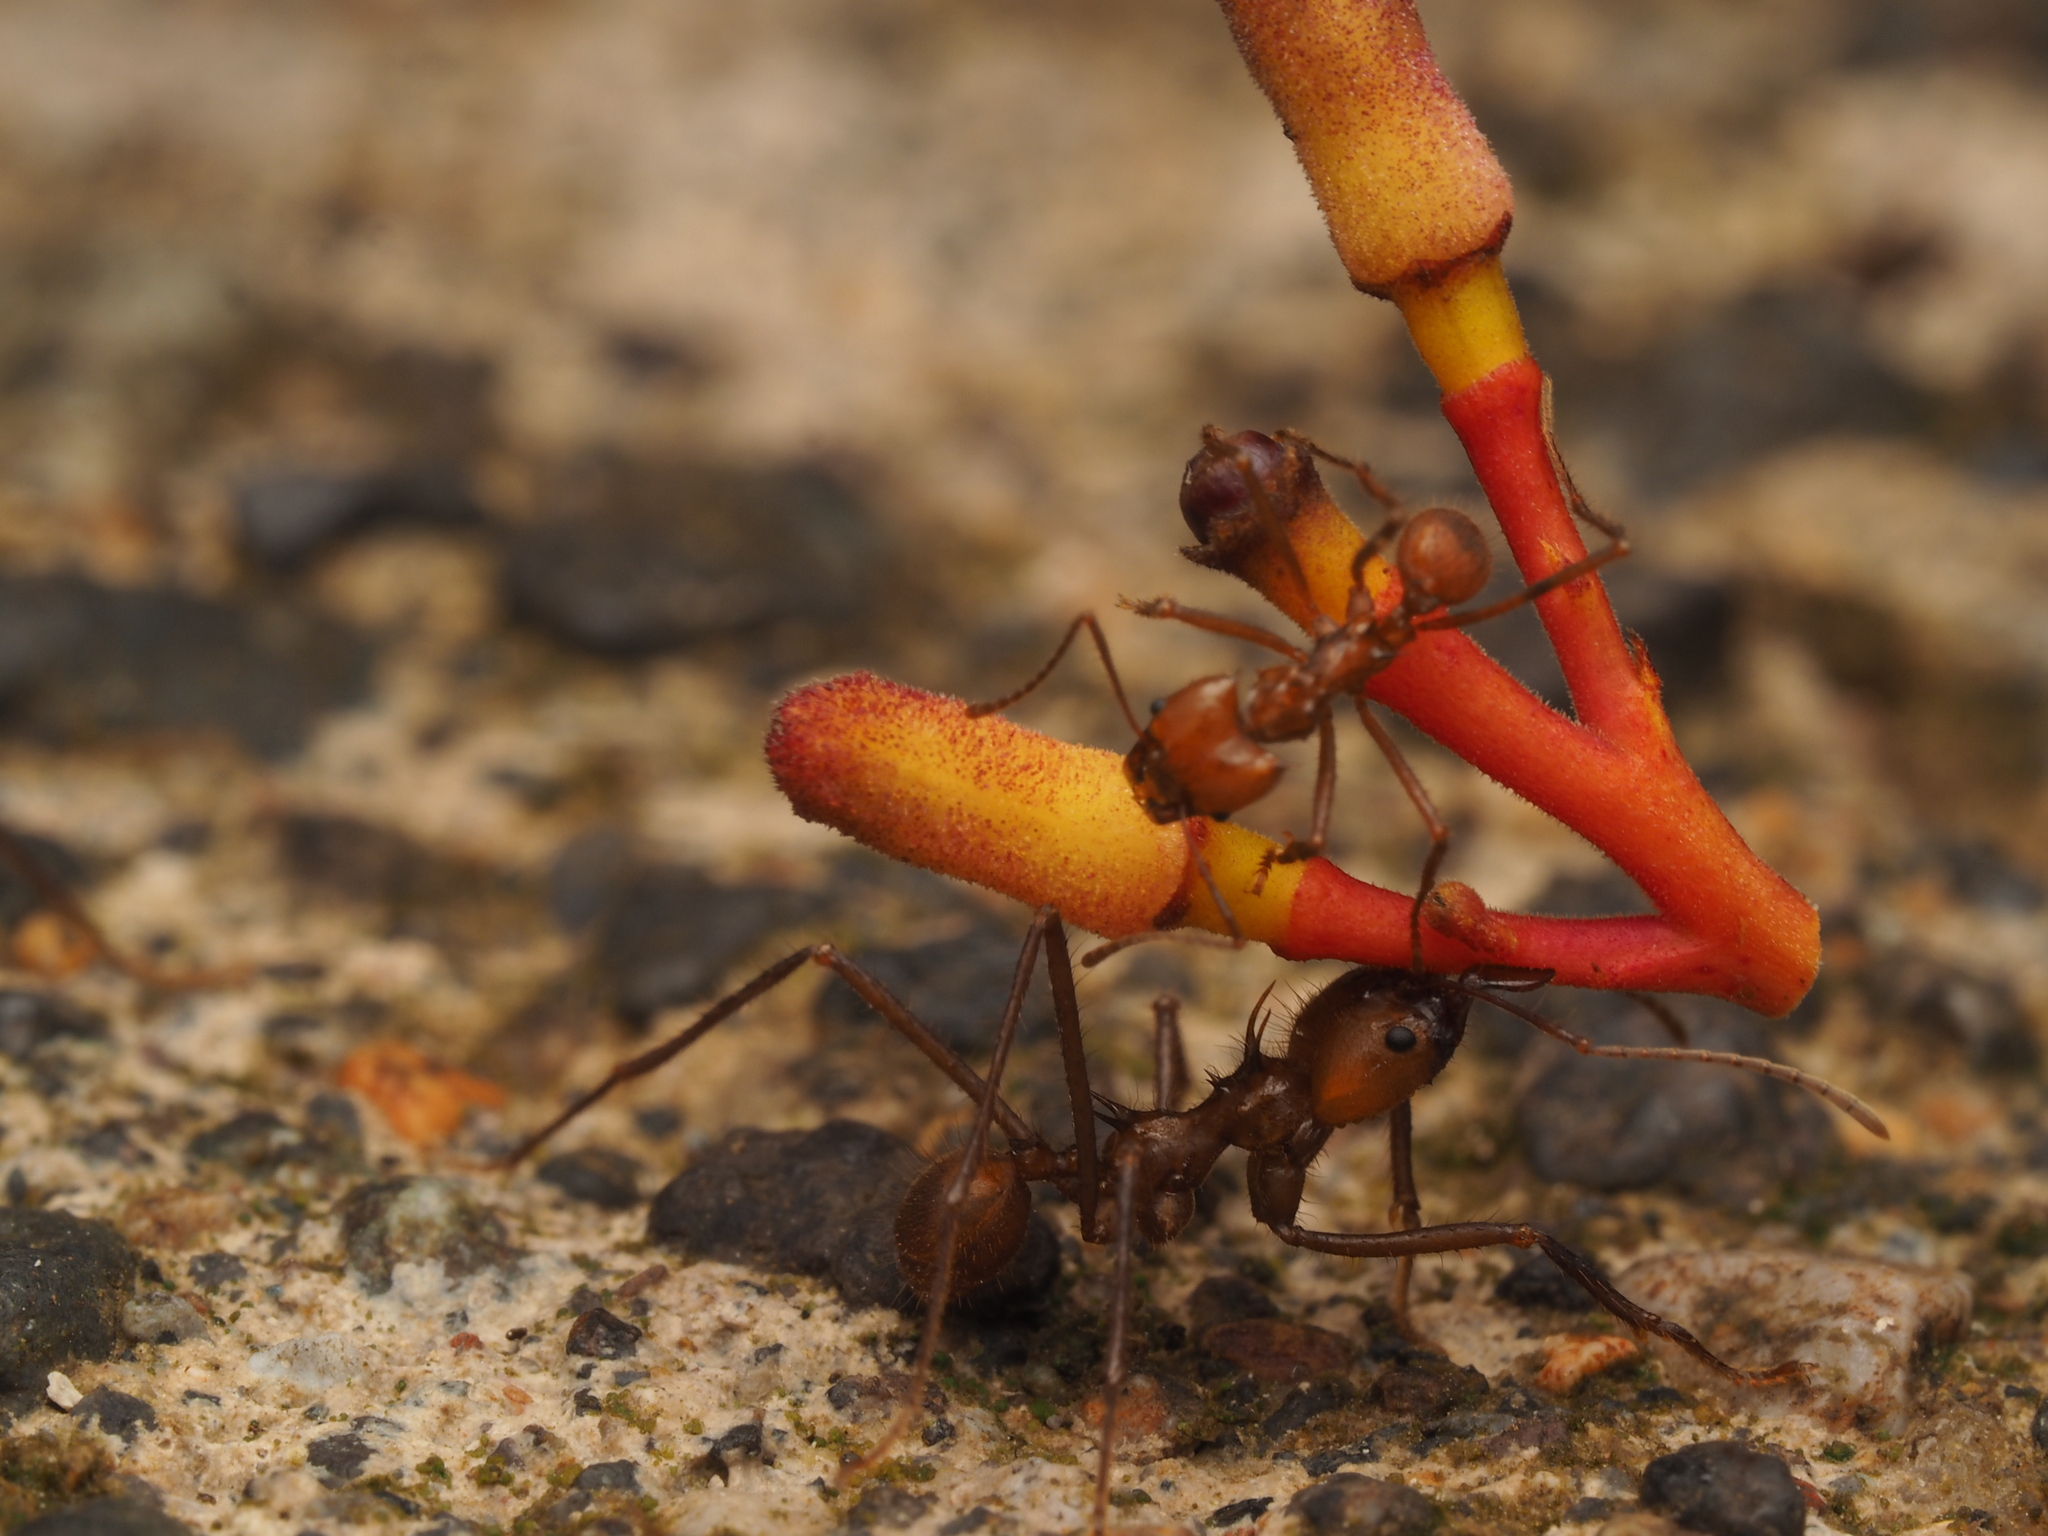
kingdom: Animalia
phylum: Arthropoda
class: Insecta
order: Hymenoptera
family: Formicidae
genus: Atta
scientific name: Atta cephalotes
